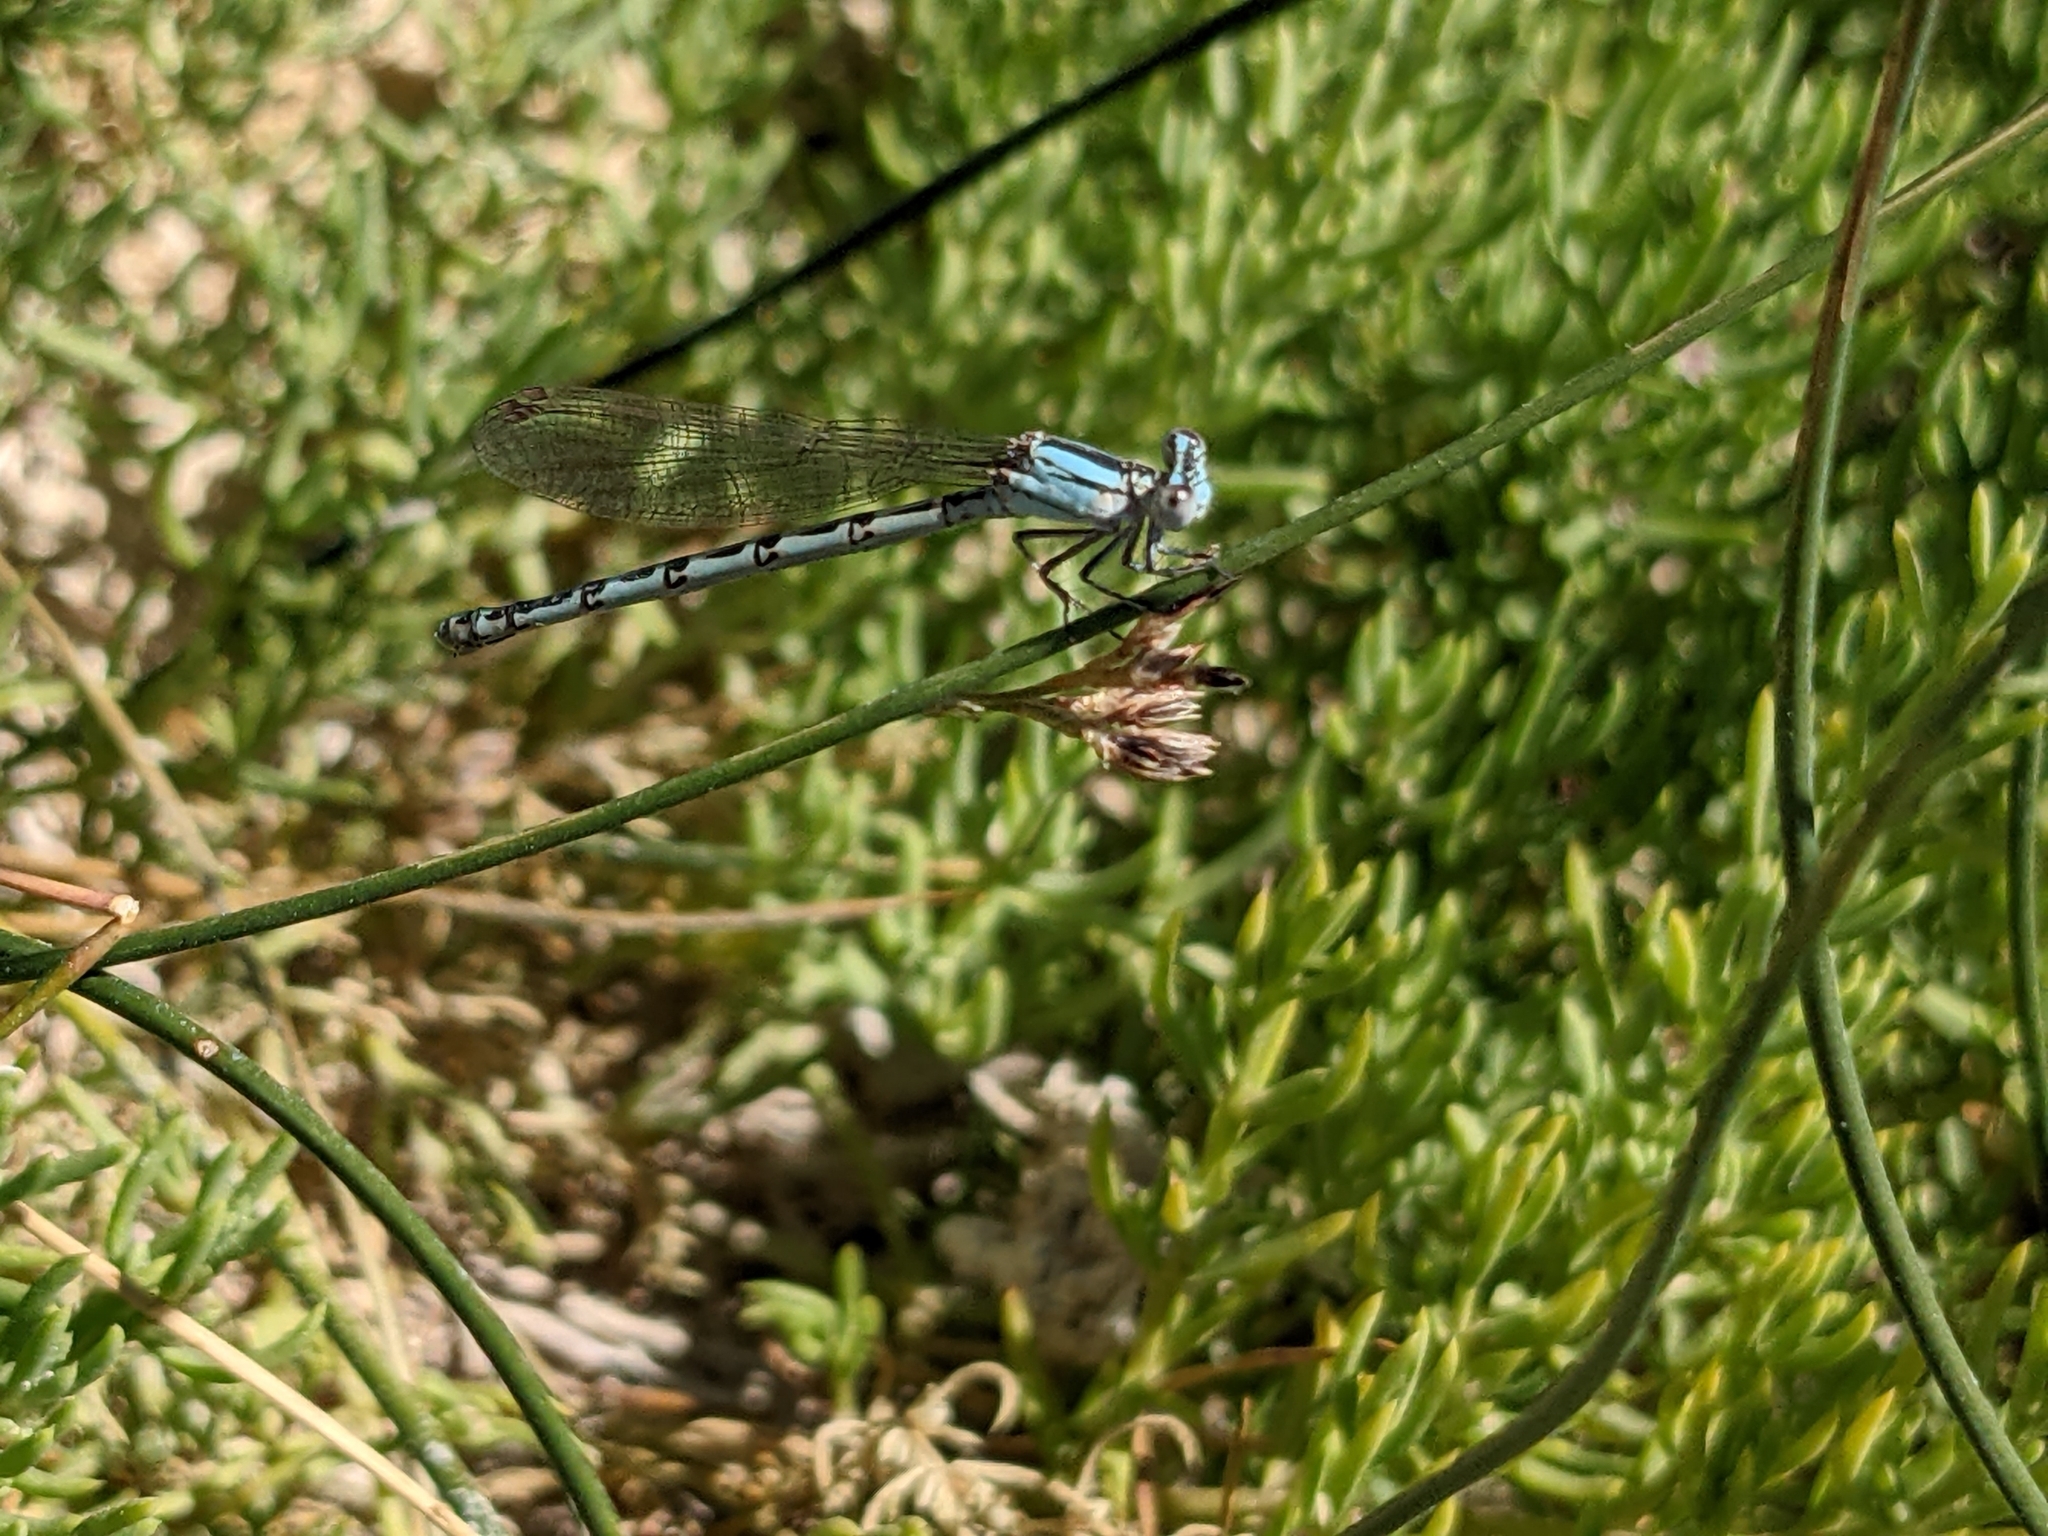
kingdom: Animalia
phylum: Arthropoda
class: Insecta
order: Odonata
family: Coenagrionidae
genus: Argia
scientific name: Argia alberta
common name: Paiute dancer
